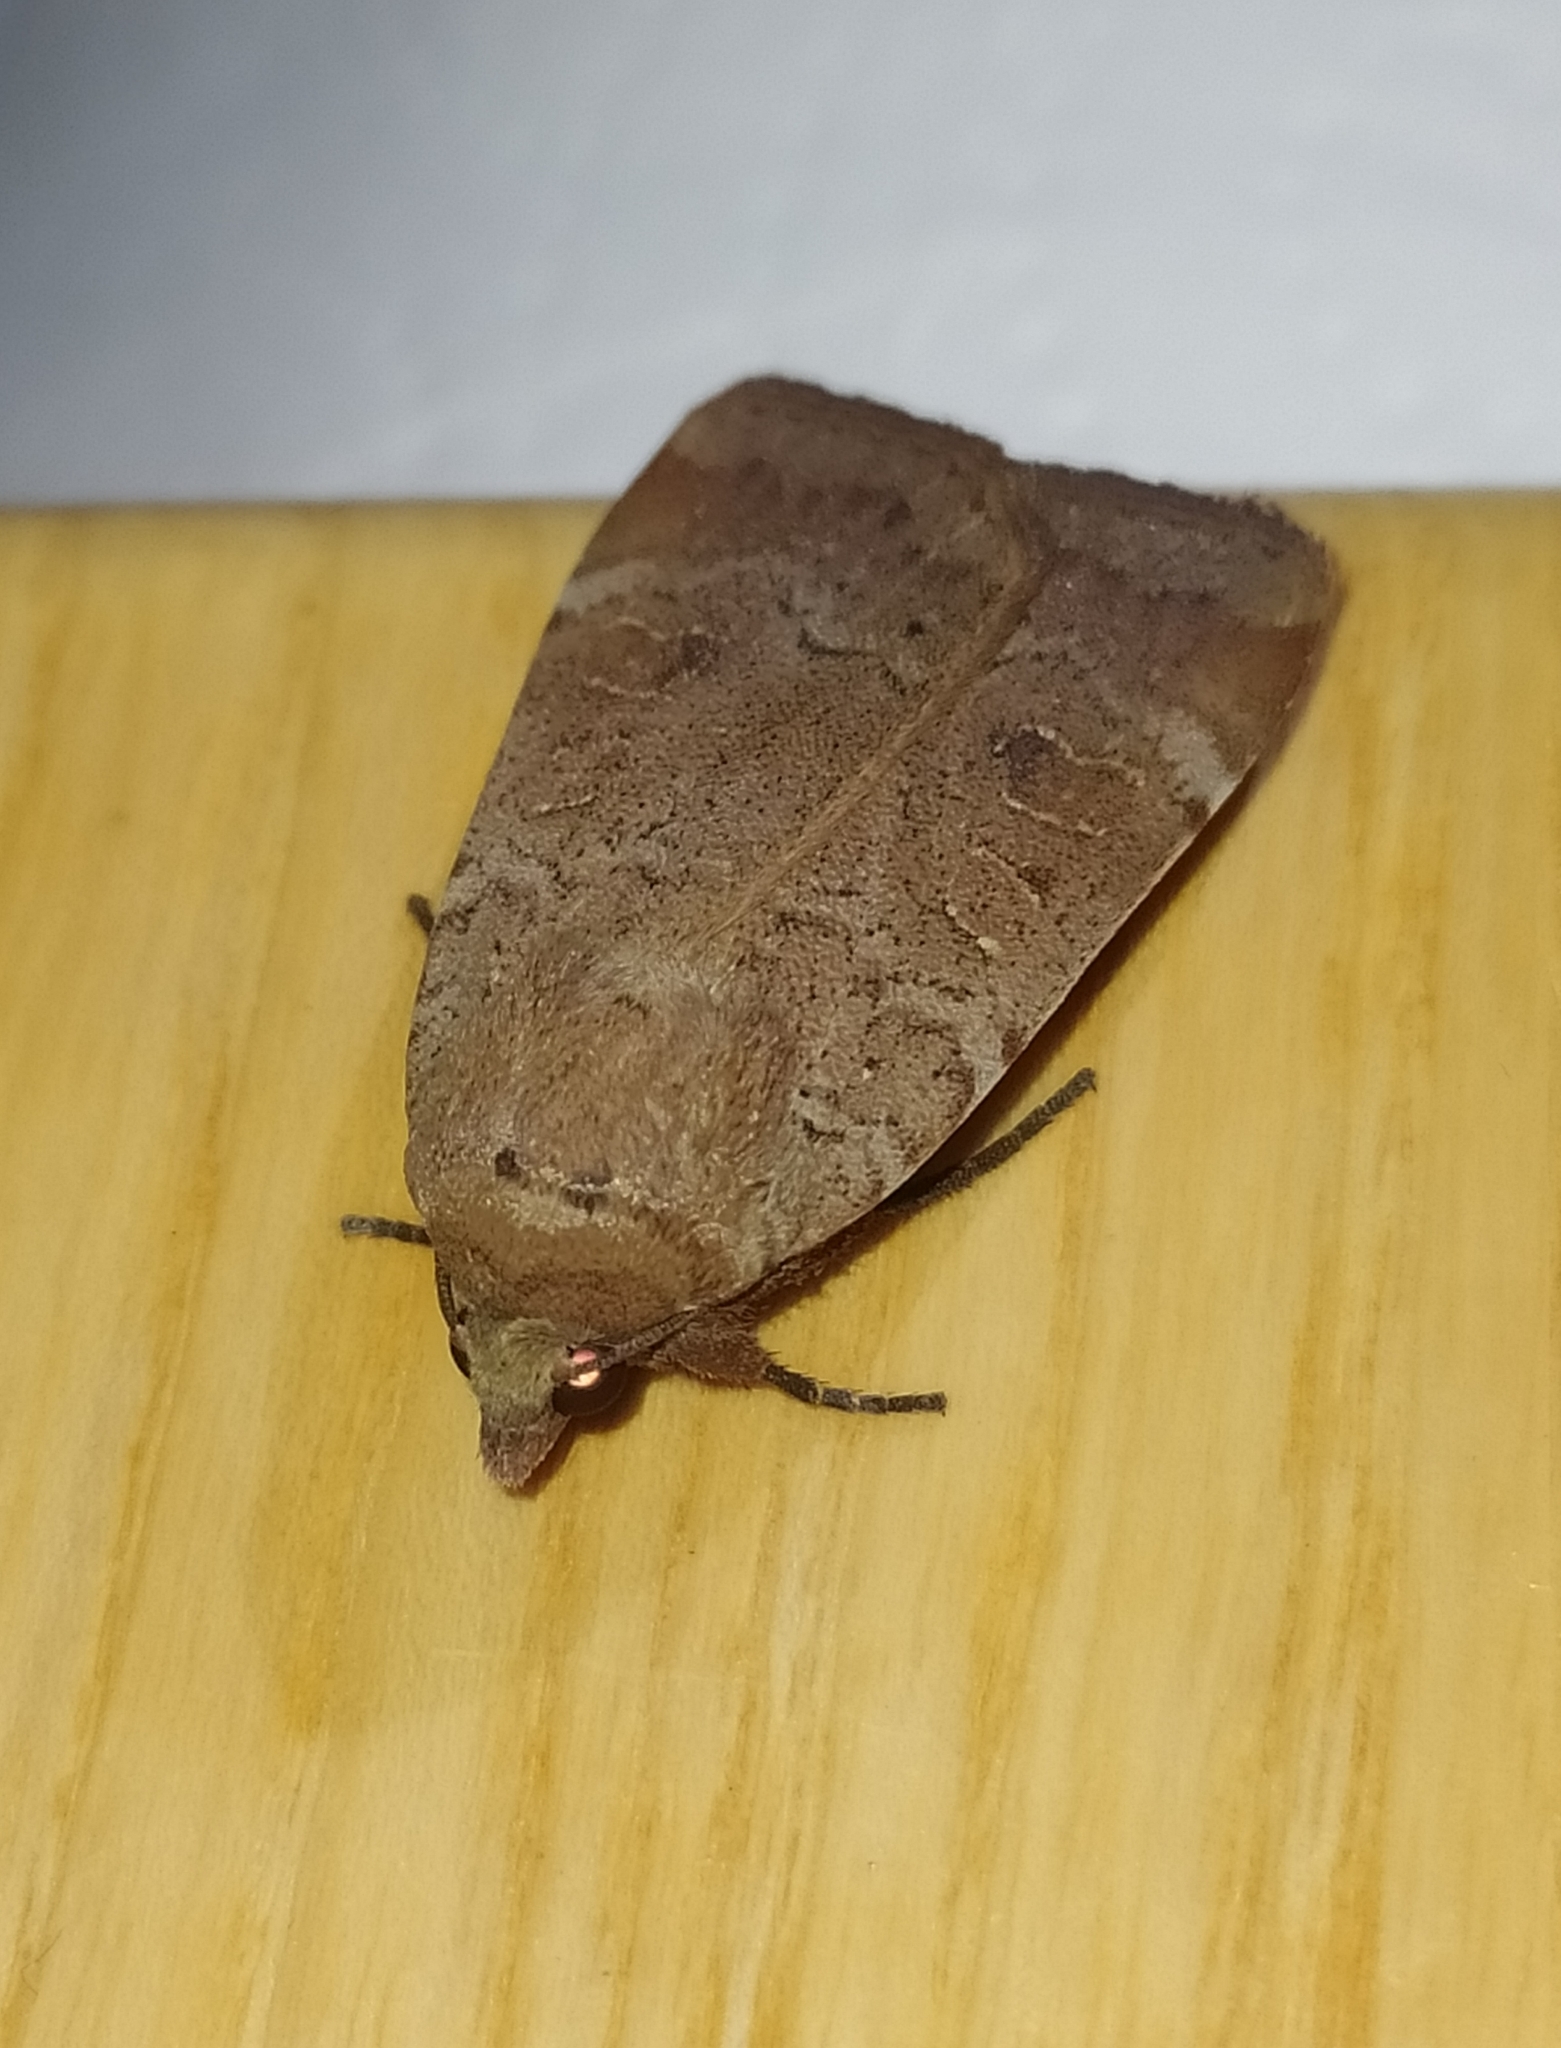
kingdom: Animalia
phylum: Arthropoda
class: Insecta
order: Lepidoptera
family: Noctuidae
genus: Noctua
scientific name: Noctua comes
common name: Lesser yellow underwing
